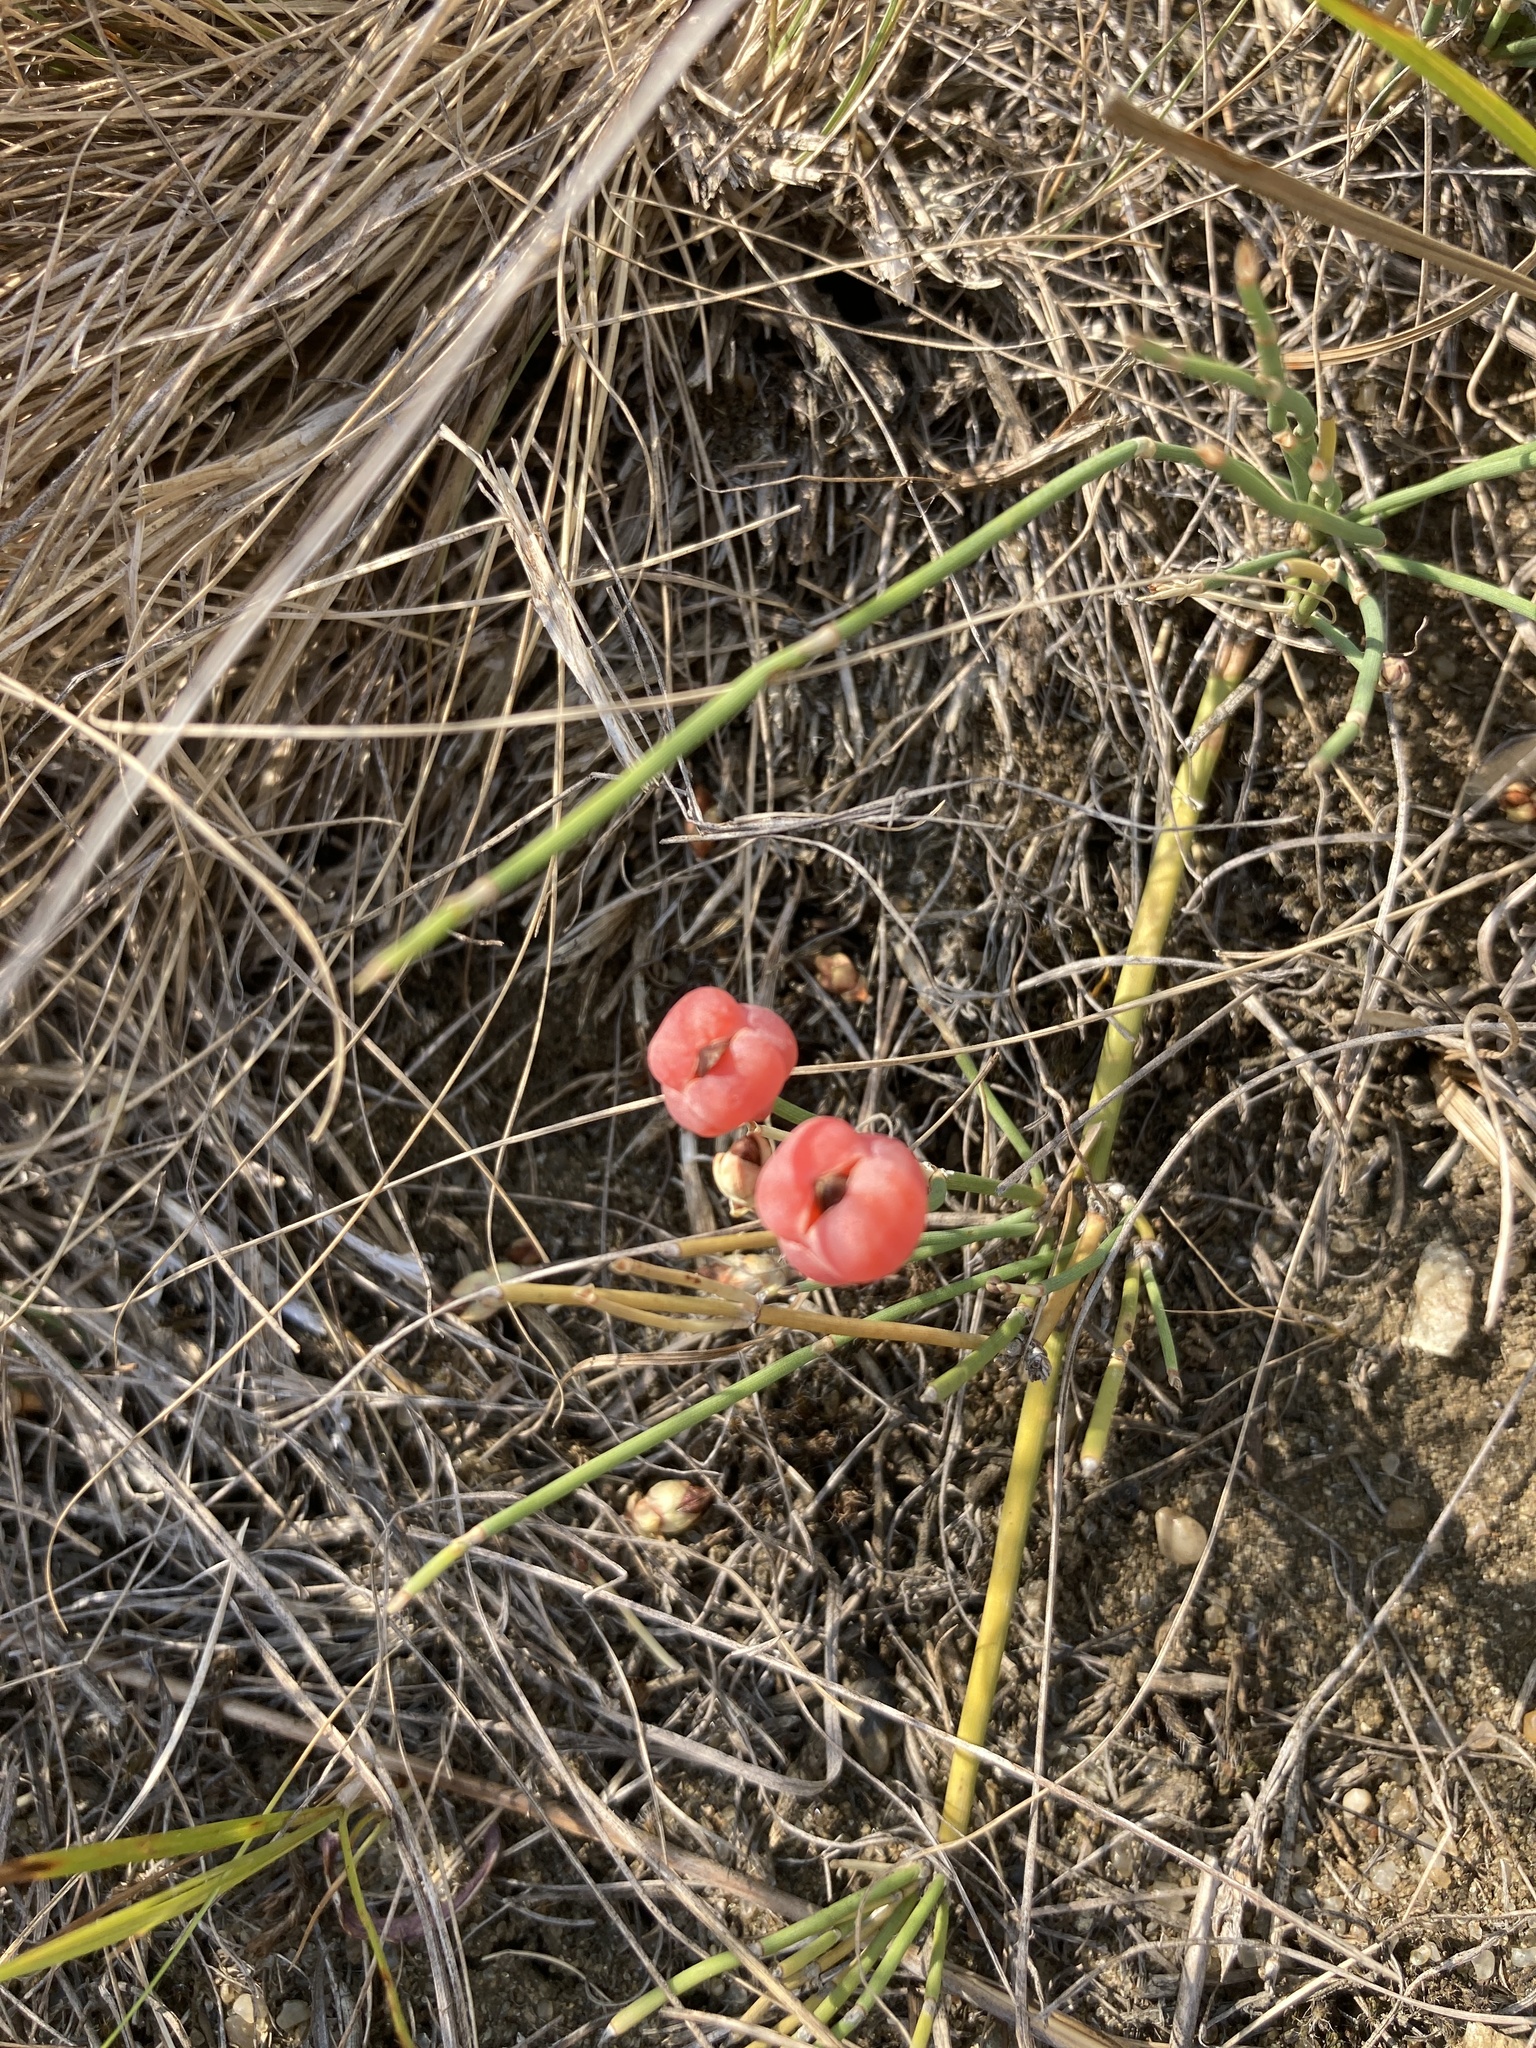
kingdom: Plantae
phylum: Tracheophyta
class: Gnetopsida
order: Ephedrales
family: Ephedraceae
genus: Ephedra
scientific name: Ephedra distachya
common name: Sea grape
